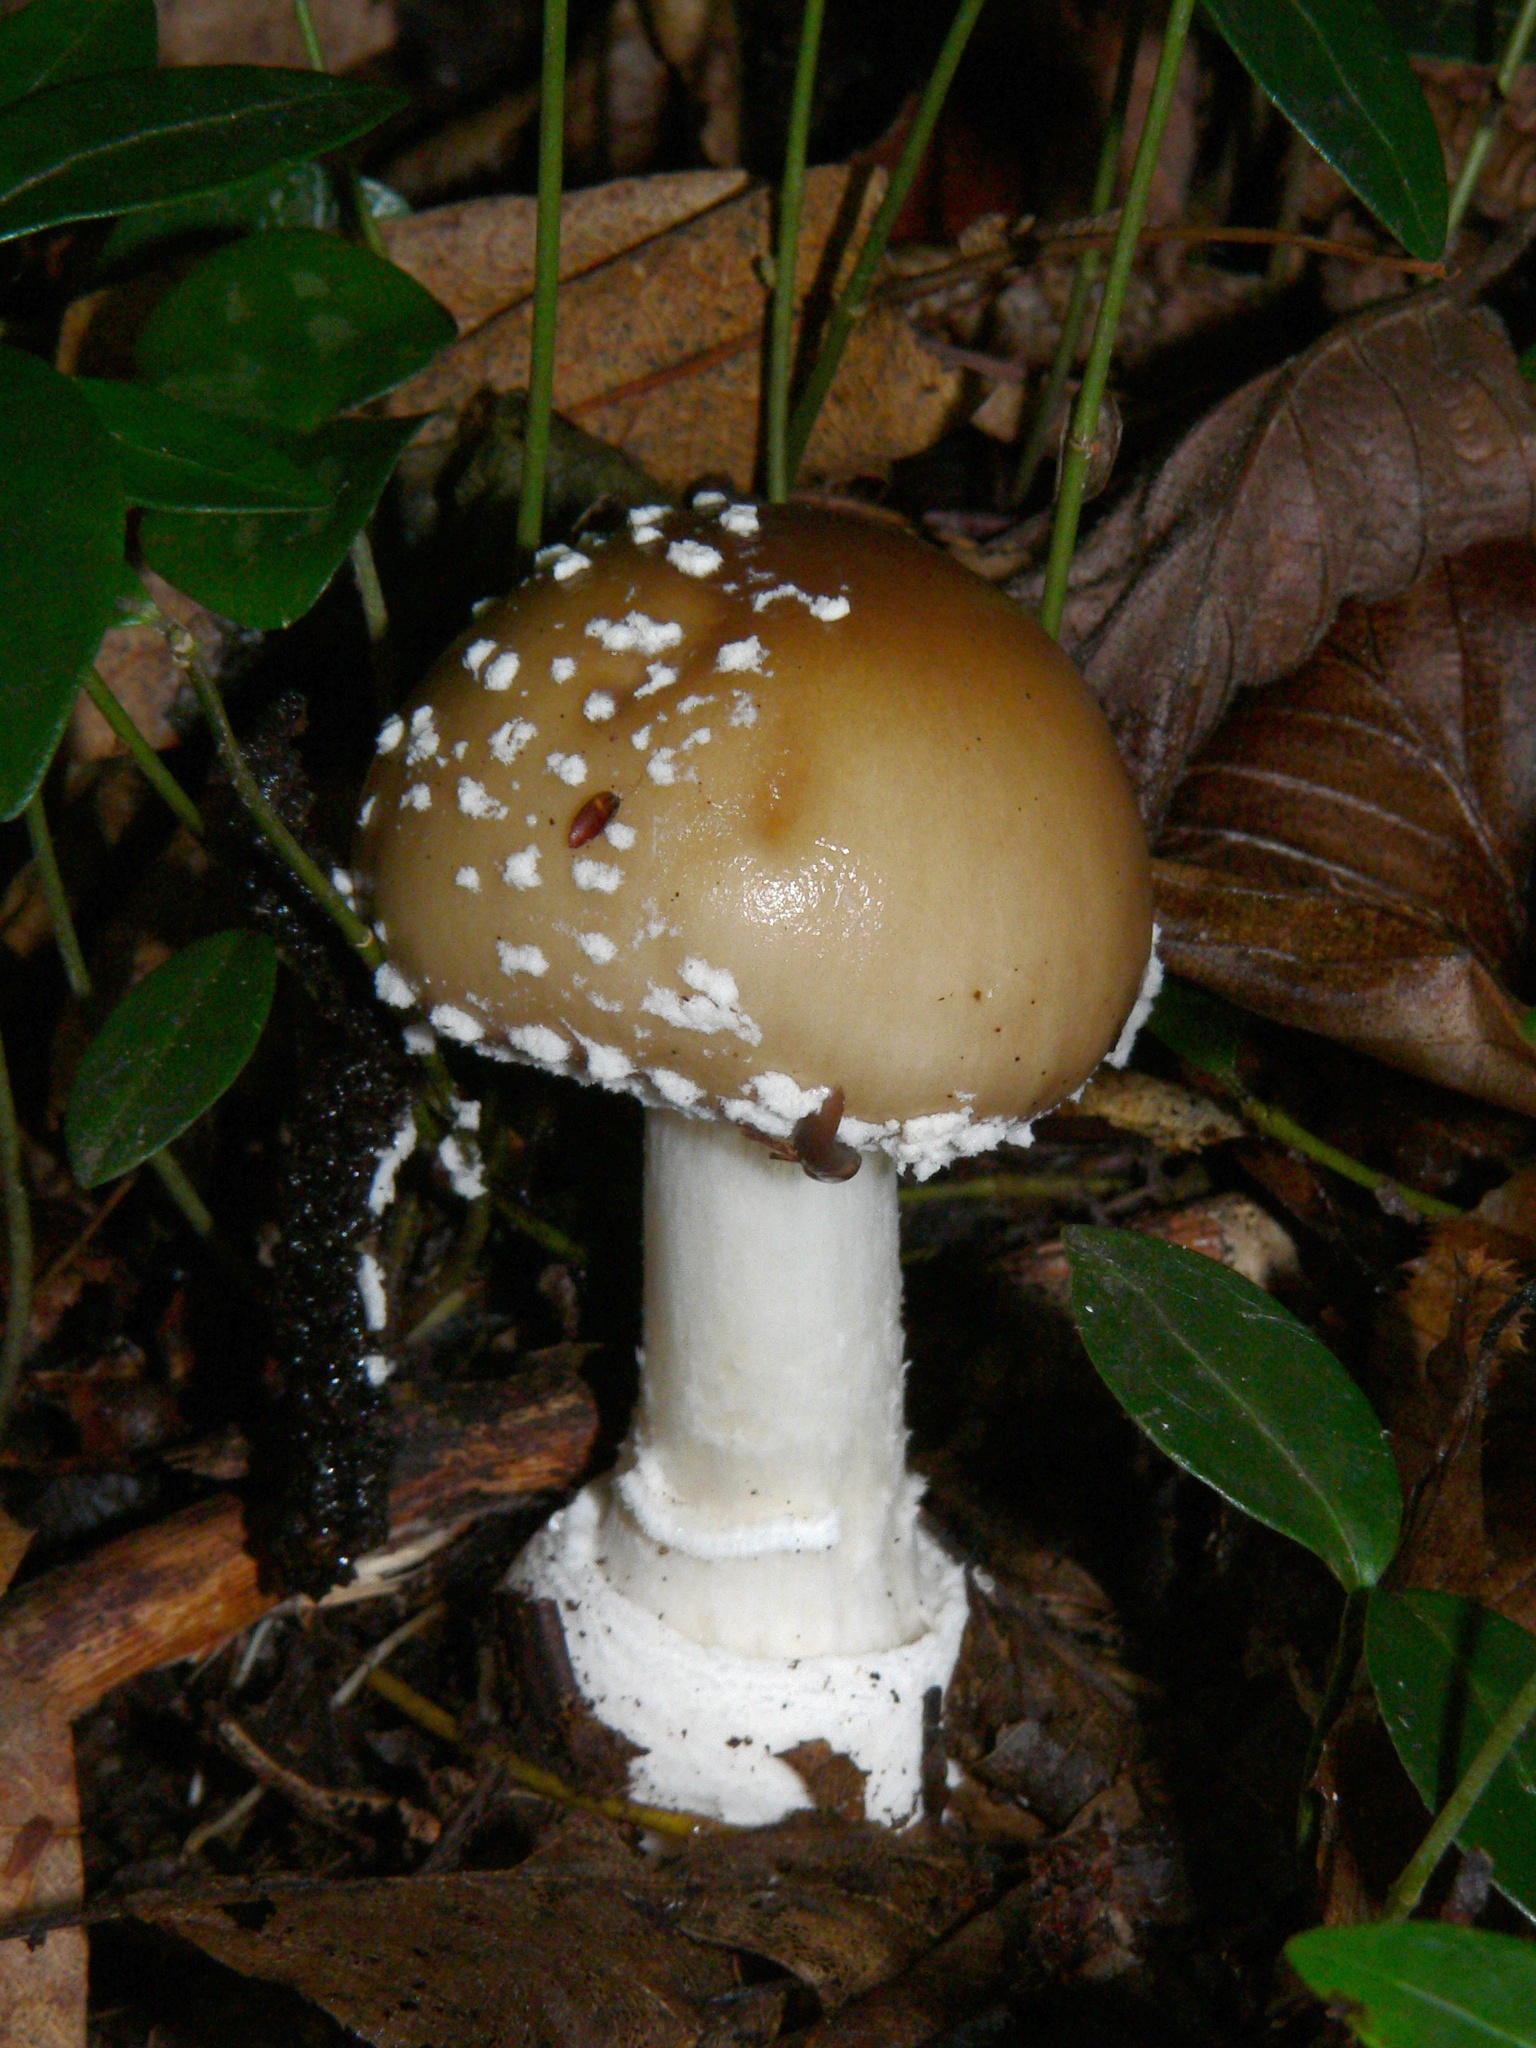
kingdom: Fungi
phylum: Basidiomycota
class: Agaricomycetes
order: Agaricales
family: Amanitaceae
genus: Amanita
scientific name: Amanita pantherina
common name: Panthercap
